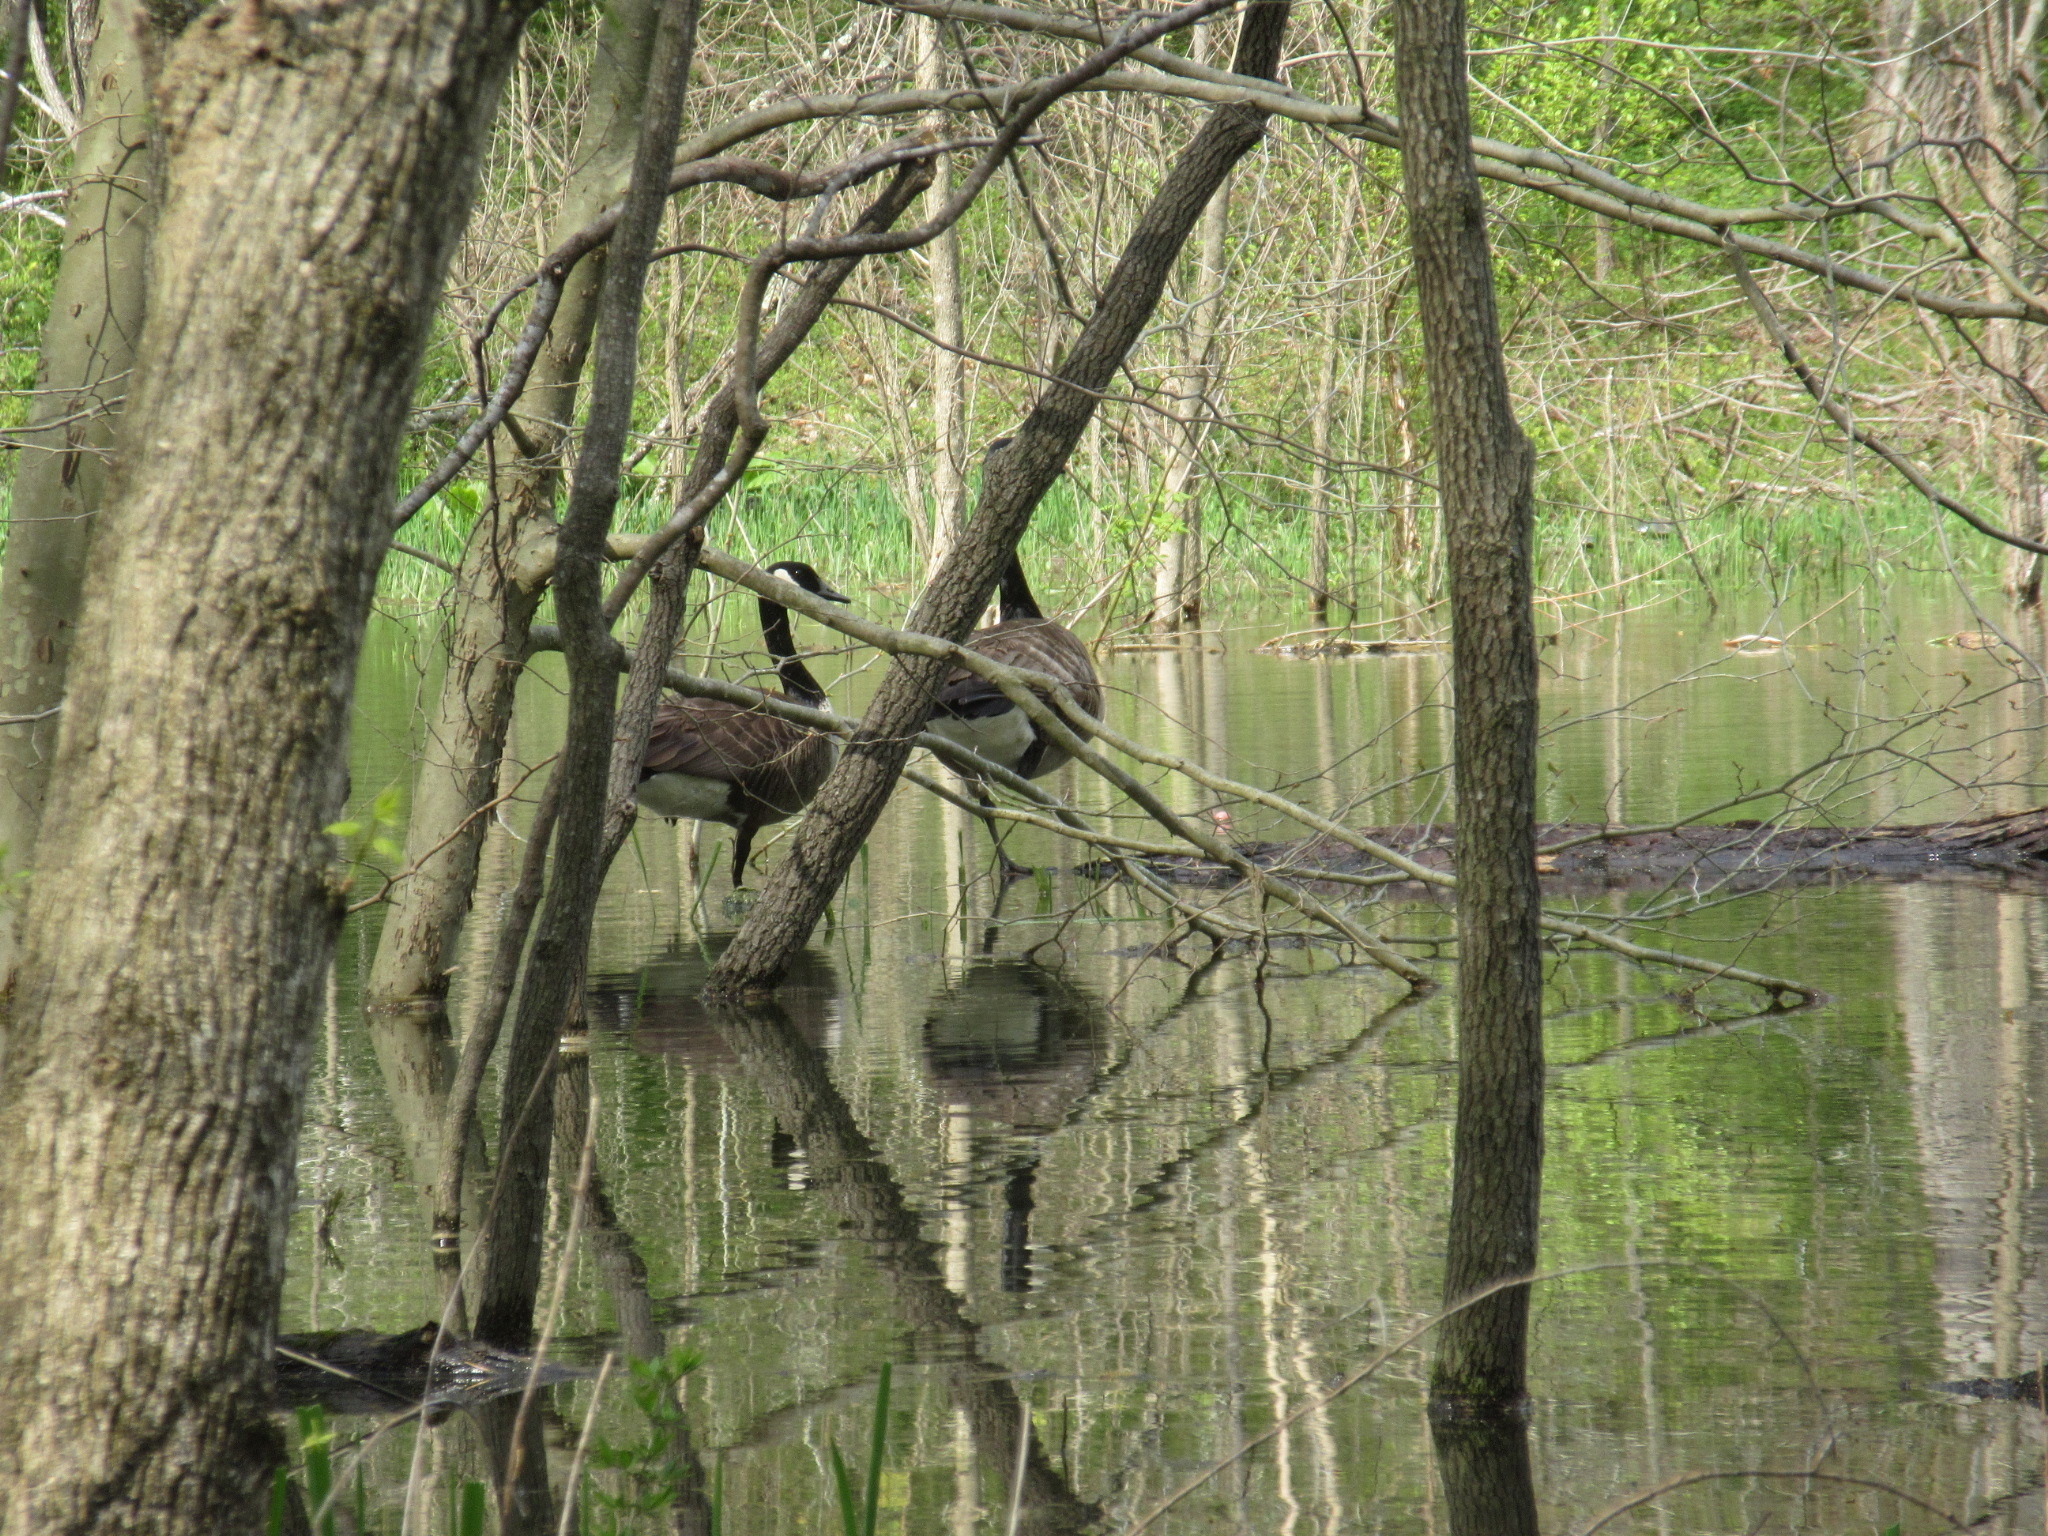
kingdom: Animalia
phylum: Chordata
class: Aves
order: Anseriformes
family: Anatidae
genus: Branta
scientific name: Branta canadensis
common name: Canada goose
